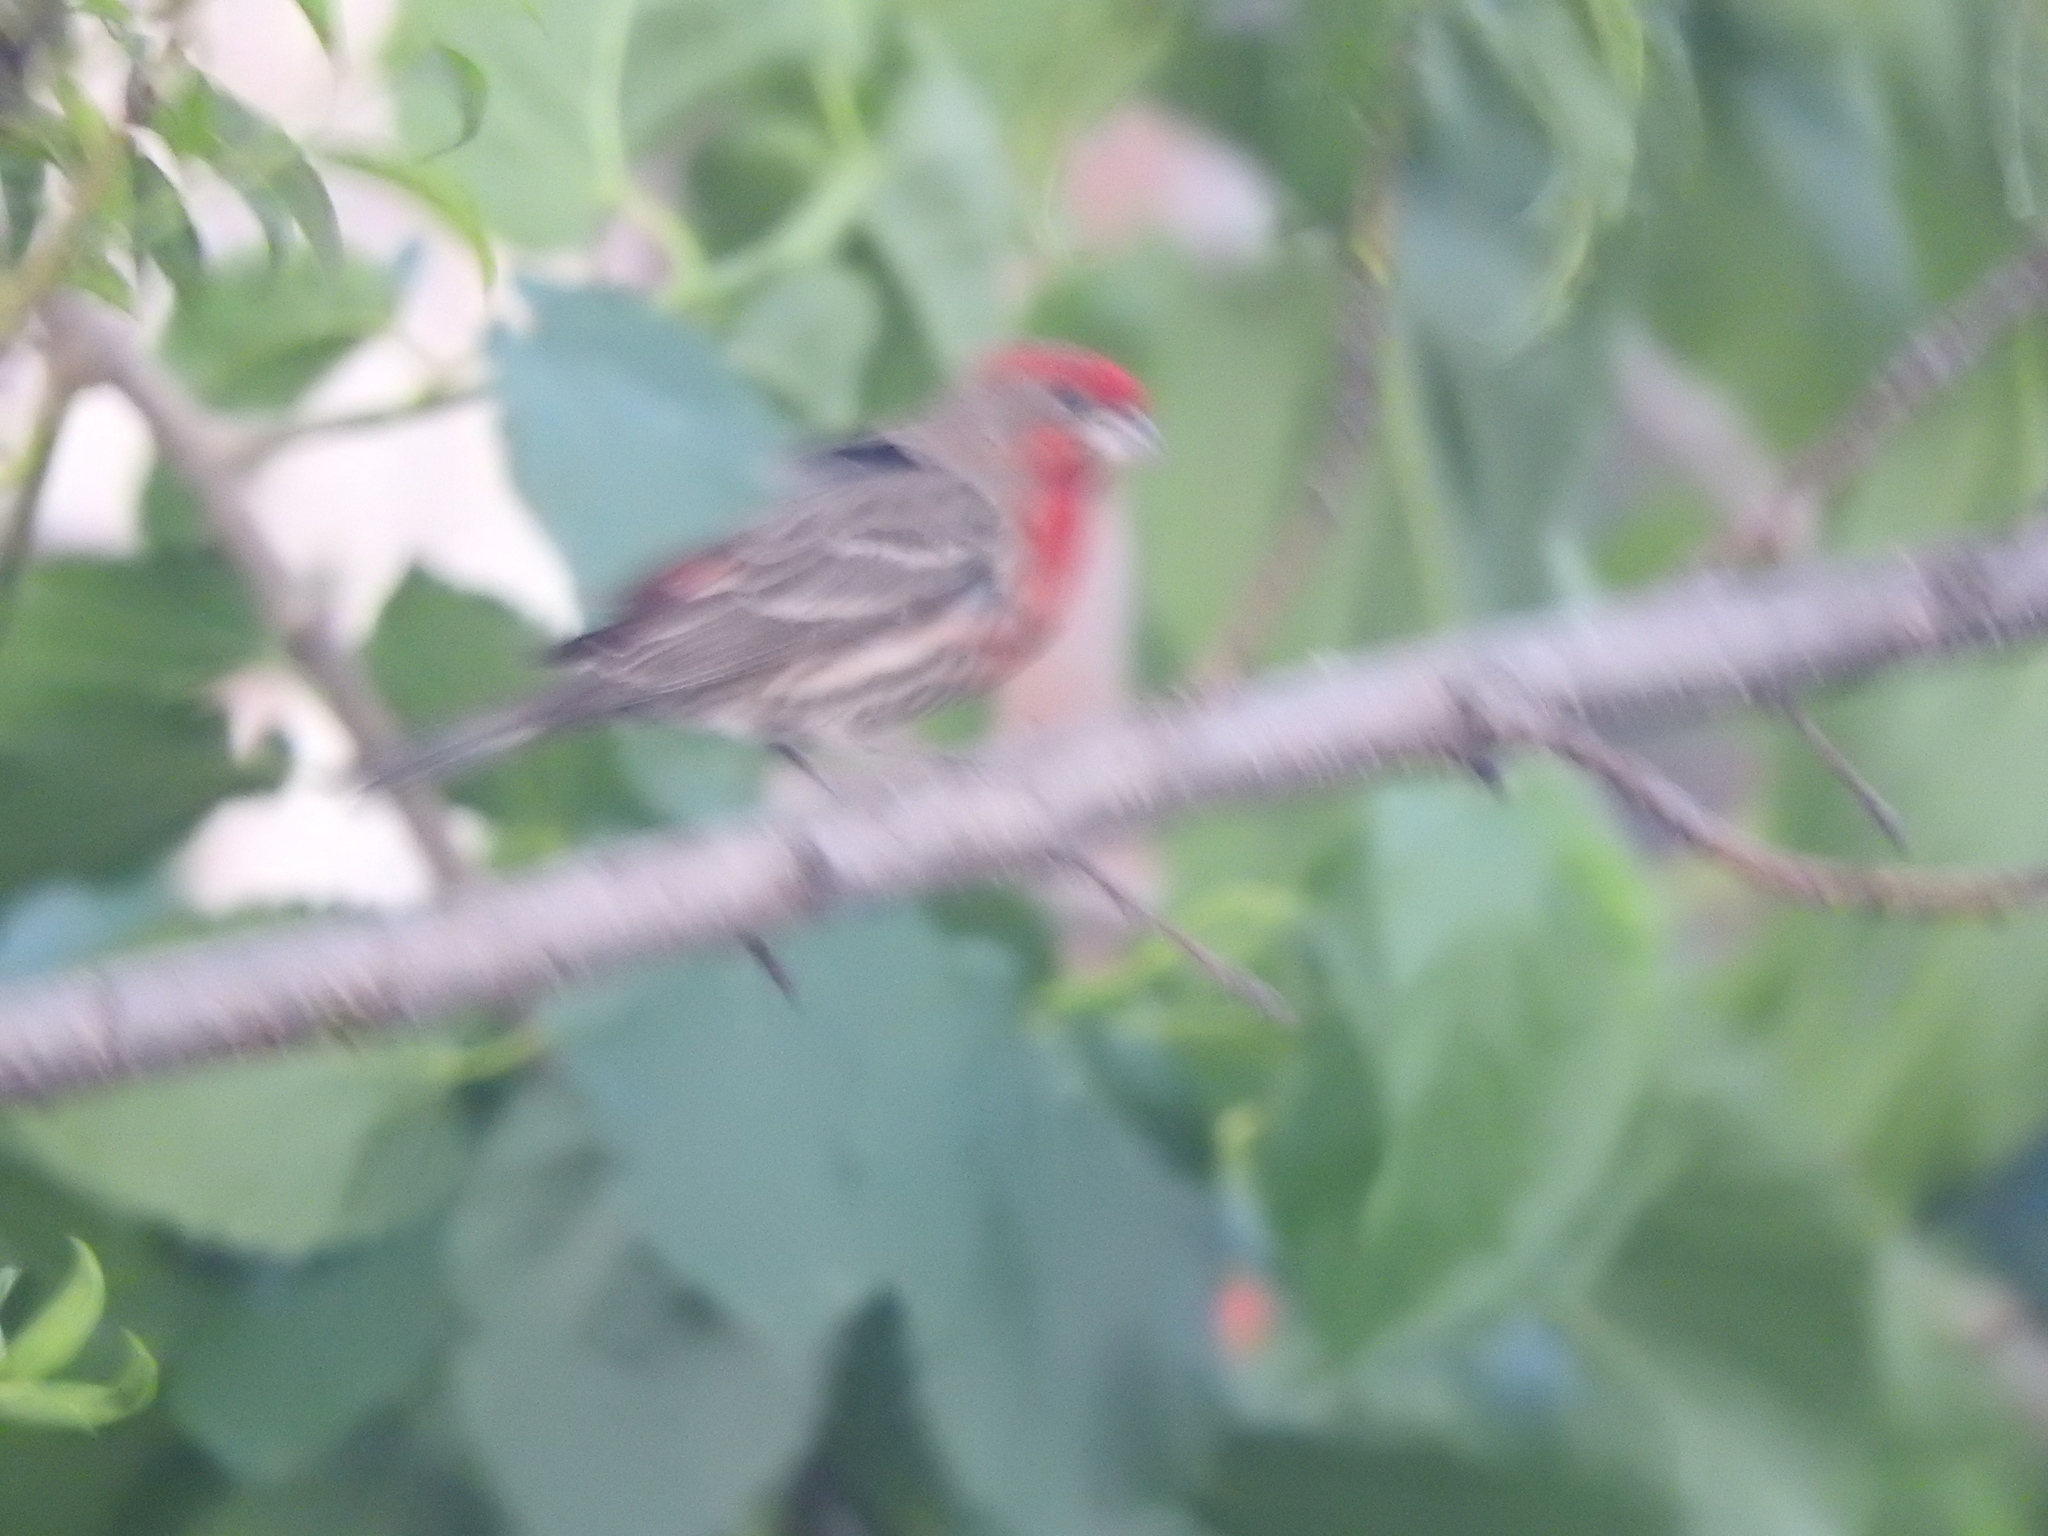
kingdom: Animalia
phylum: Chordata
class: Aves
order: Passeriformes
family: Fringillidae
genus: Haemorhous
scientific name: Haemorhous mexicanus
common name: House finch
